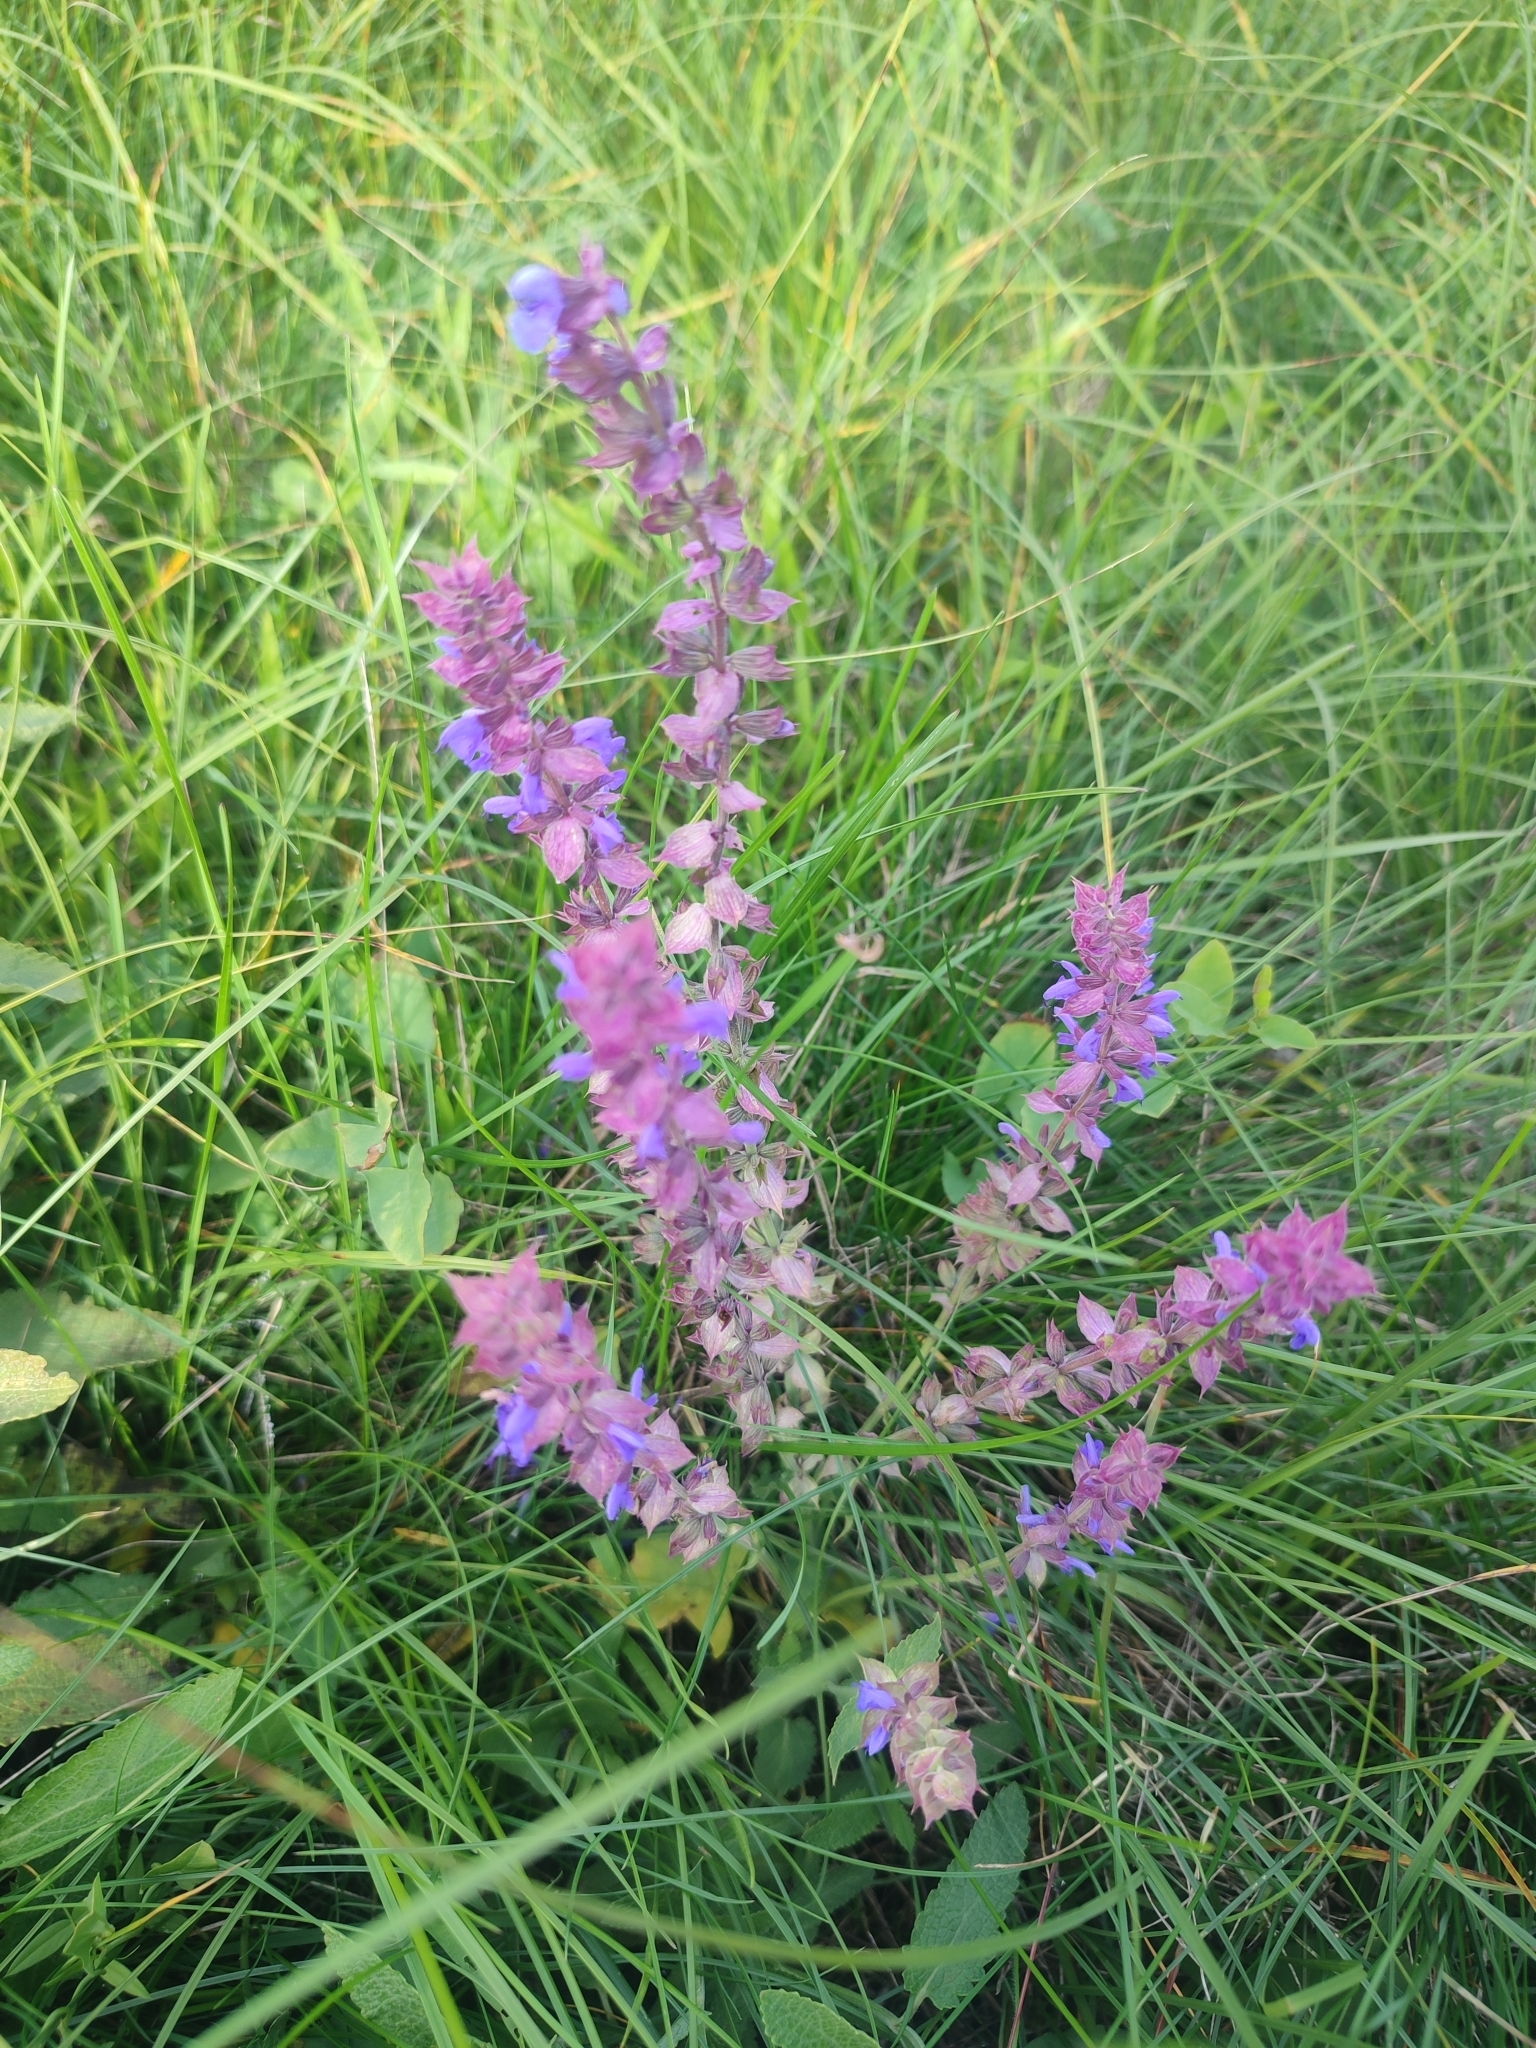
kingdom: Plantae
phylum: Tracheophyta
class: Magnoliopsida
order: Lamiales
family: Lamiaceae
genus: Salvia
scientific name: Salvia nemorosa
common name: Balkan clary
